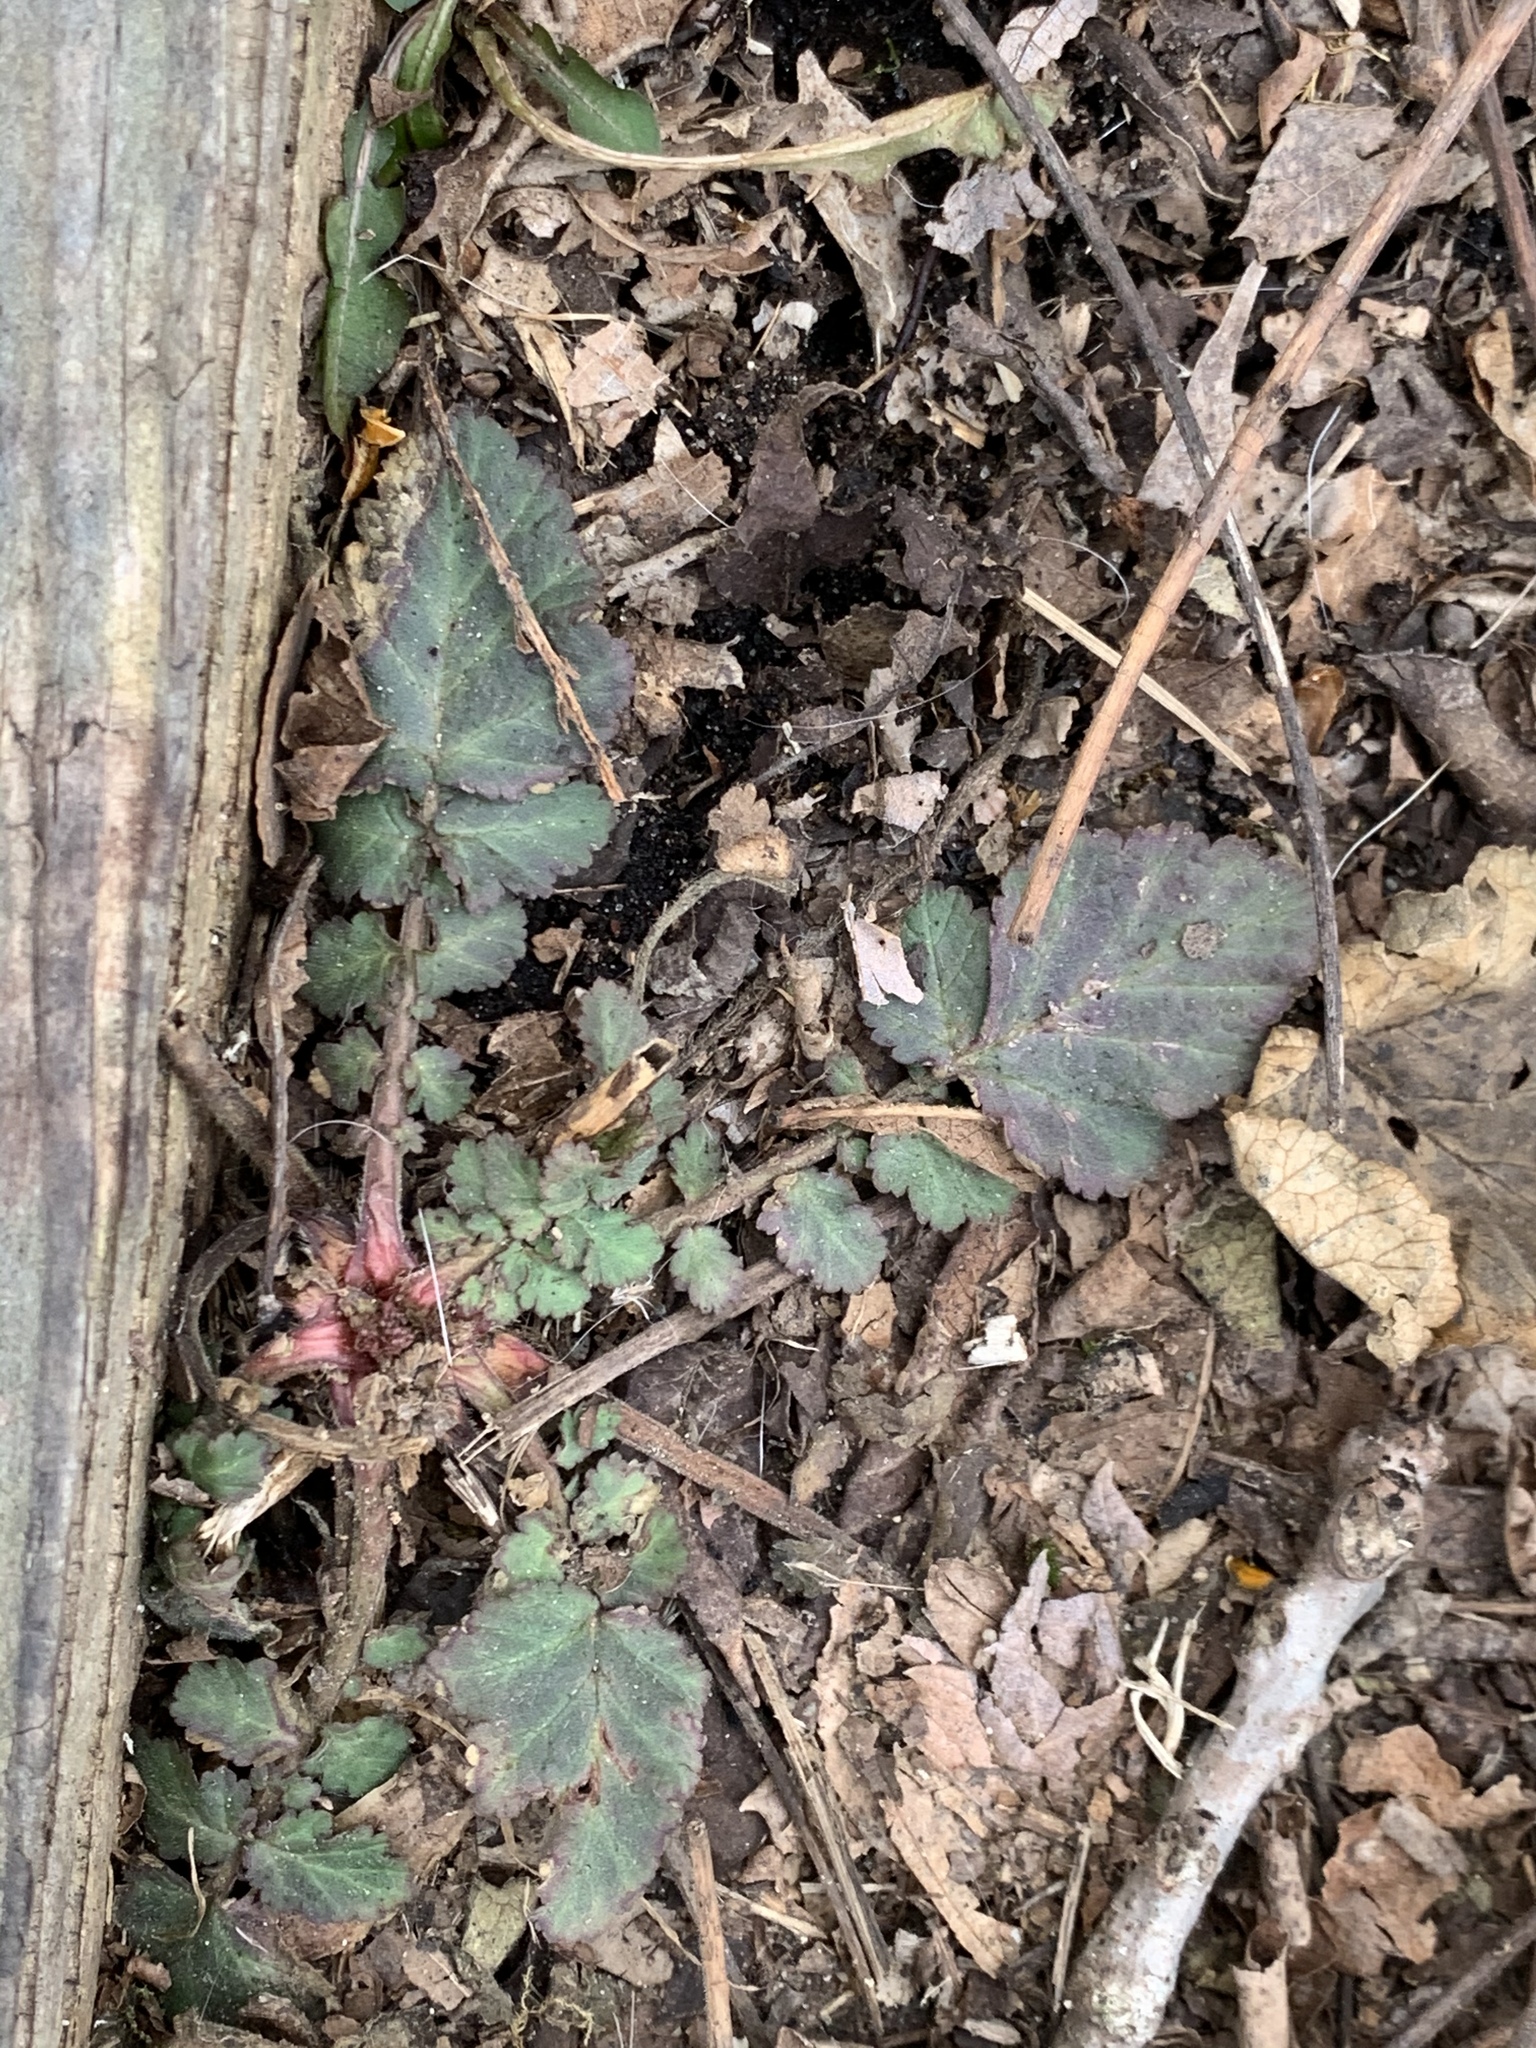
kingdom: Plantae
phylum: Tracheophyta
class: Magnoliopsida
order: Rosales
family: Rosaceae
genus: Geum
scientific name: Geum canadense
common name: White avens
